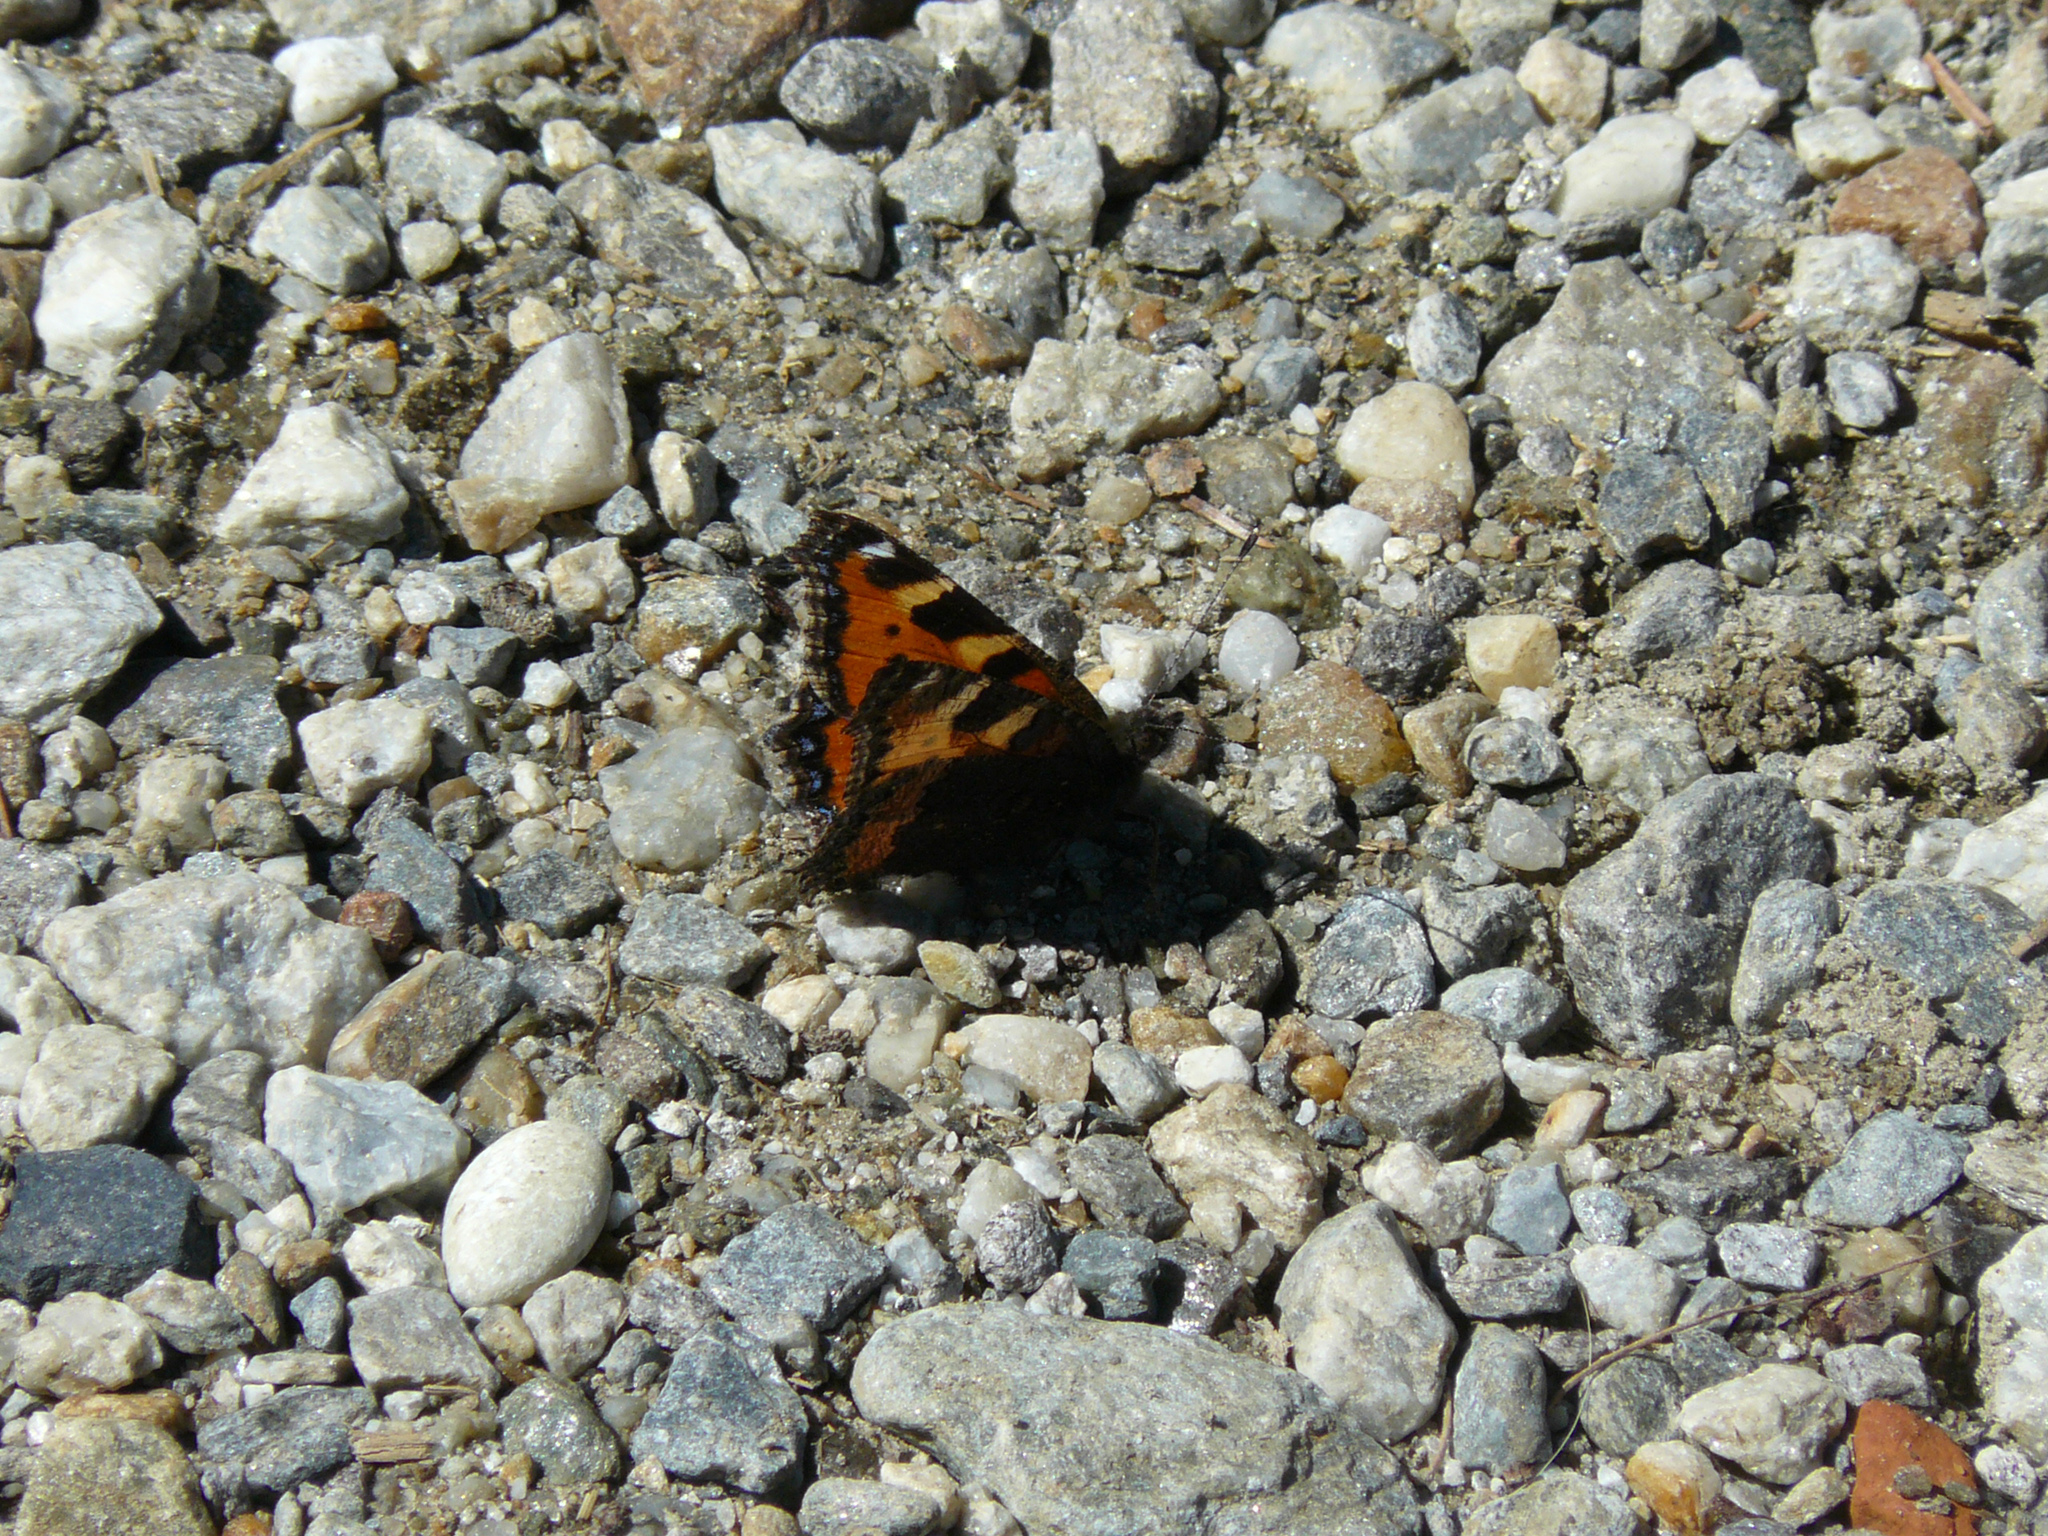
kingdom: Animalia
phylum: Arthropoda
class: Insecta
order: Lepidoptera
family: Nymphalidae
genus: Aglais
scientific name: Aglais urticae
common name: Small tortoiseshell
